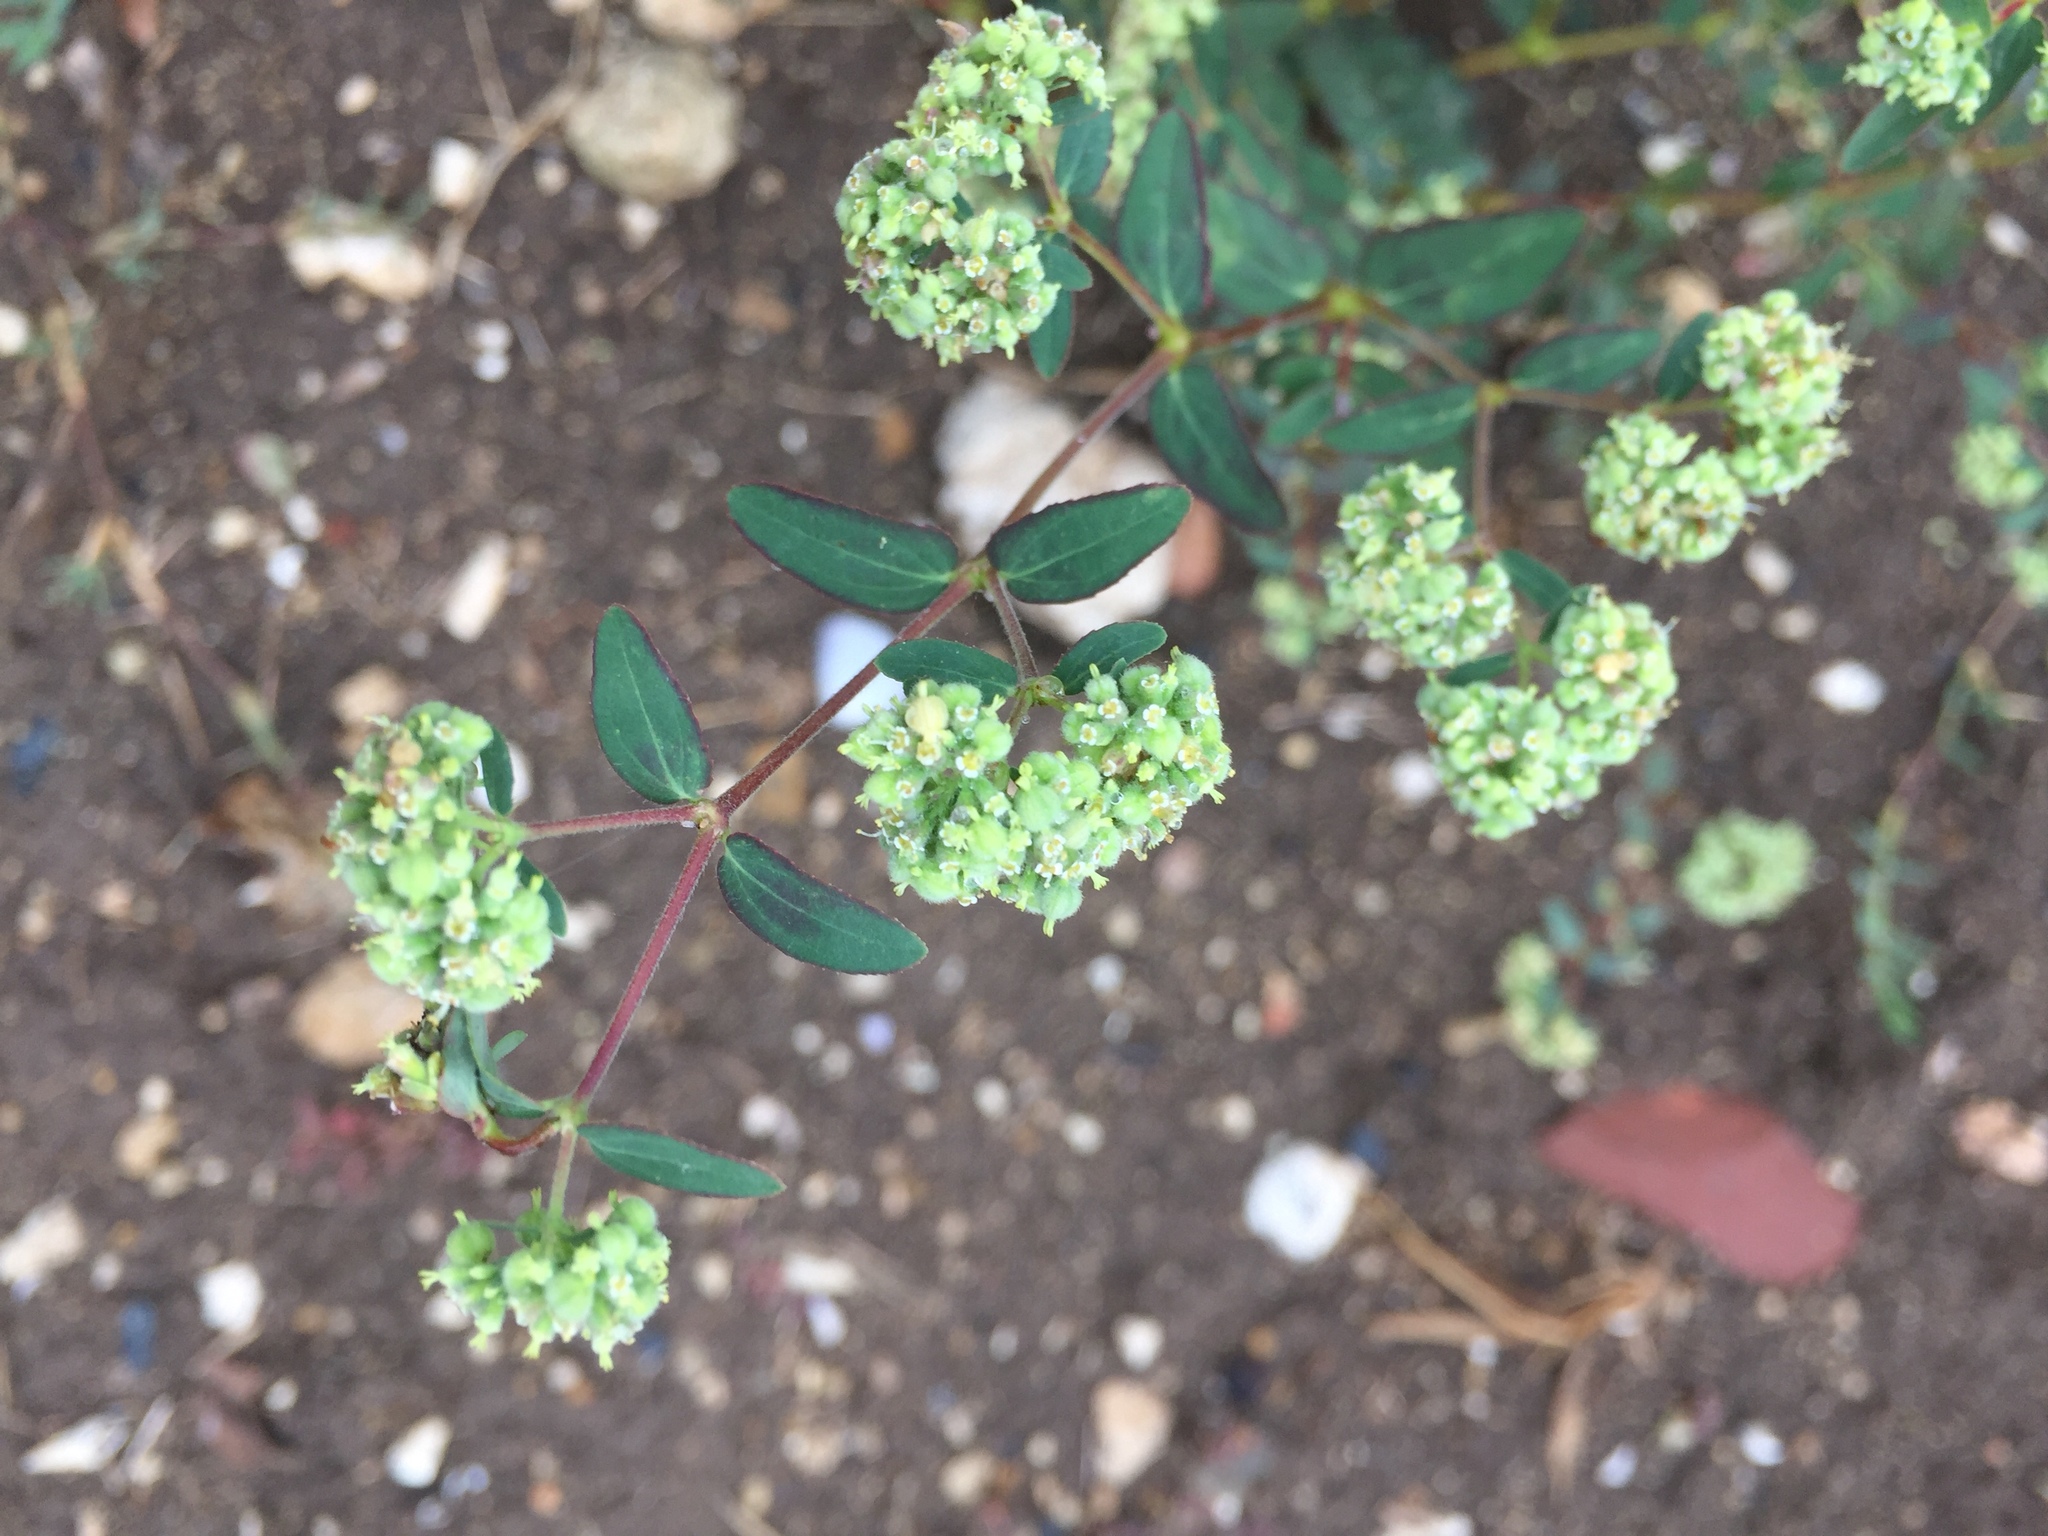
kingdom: Plantae
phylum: Tracheophyta
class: Magnoliopsida
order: Malpighiales
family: Euphorbiaceae
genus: Euphorbia
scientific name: Euphorbia lasiocarpa
